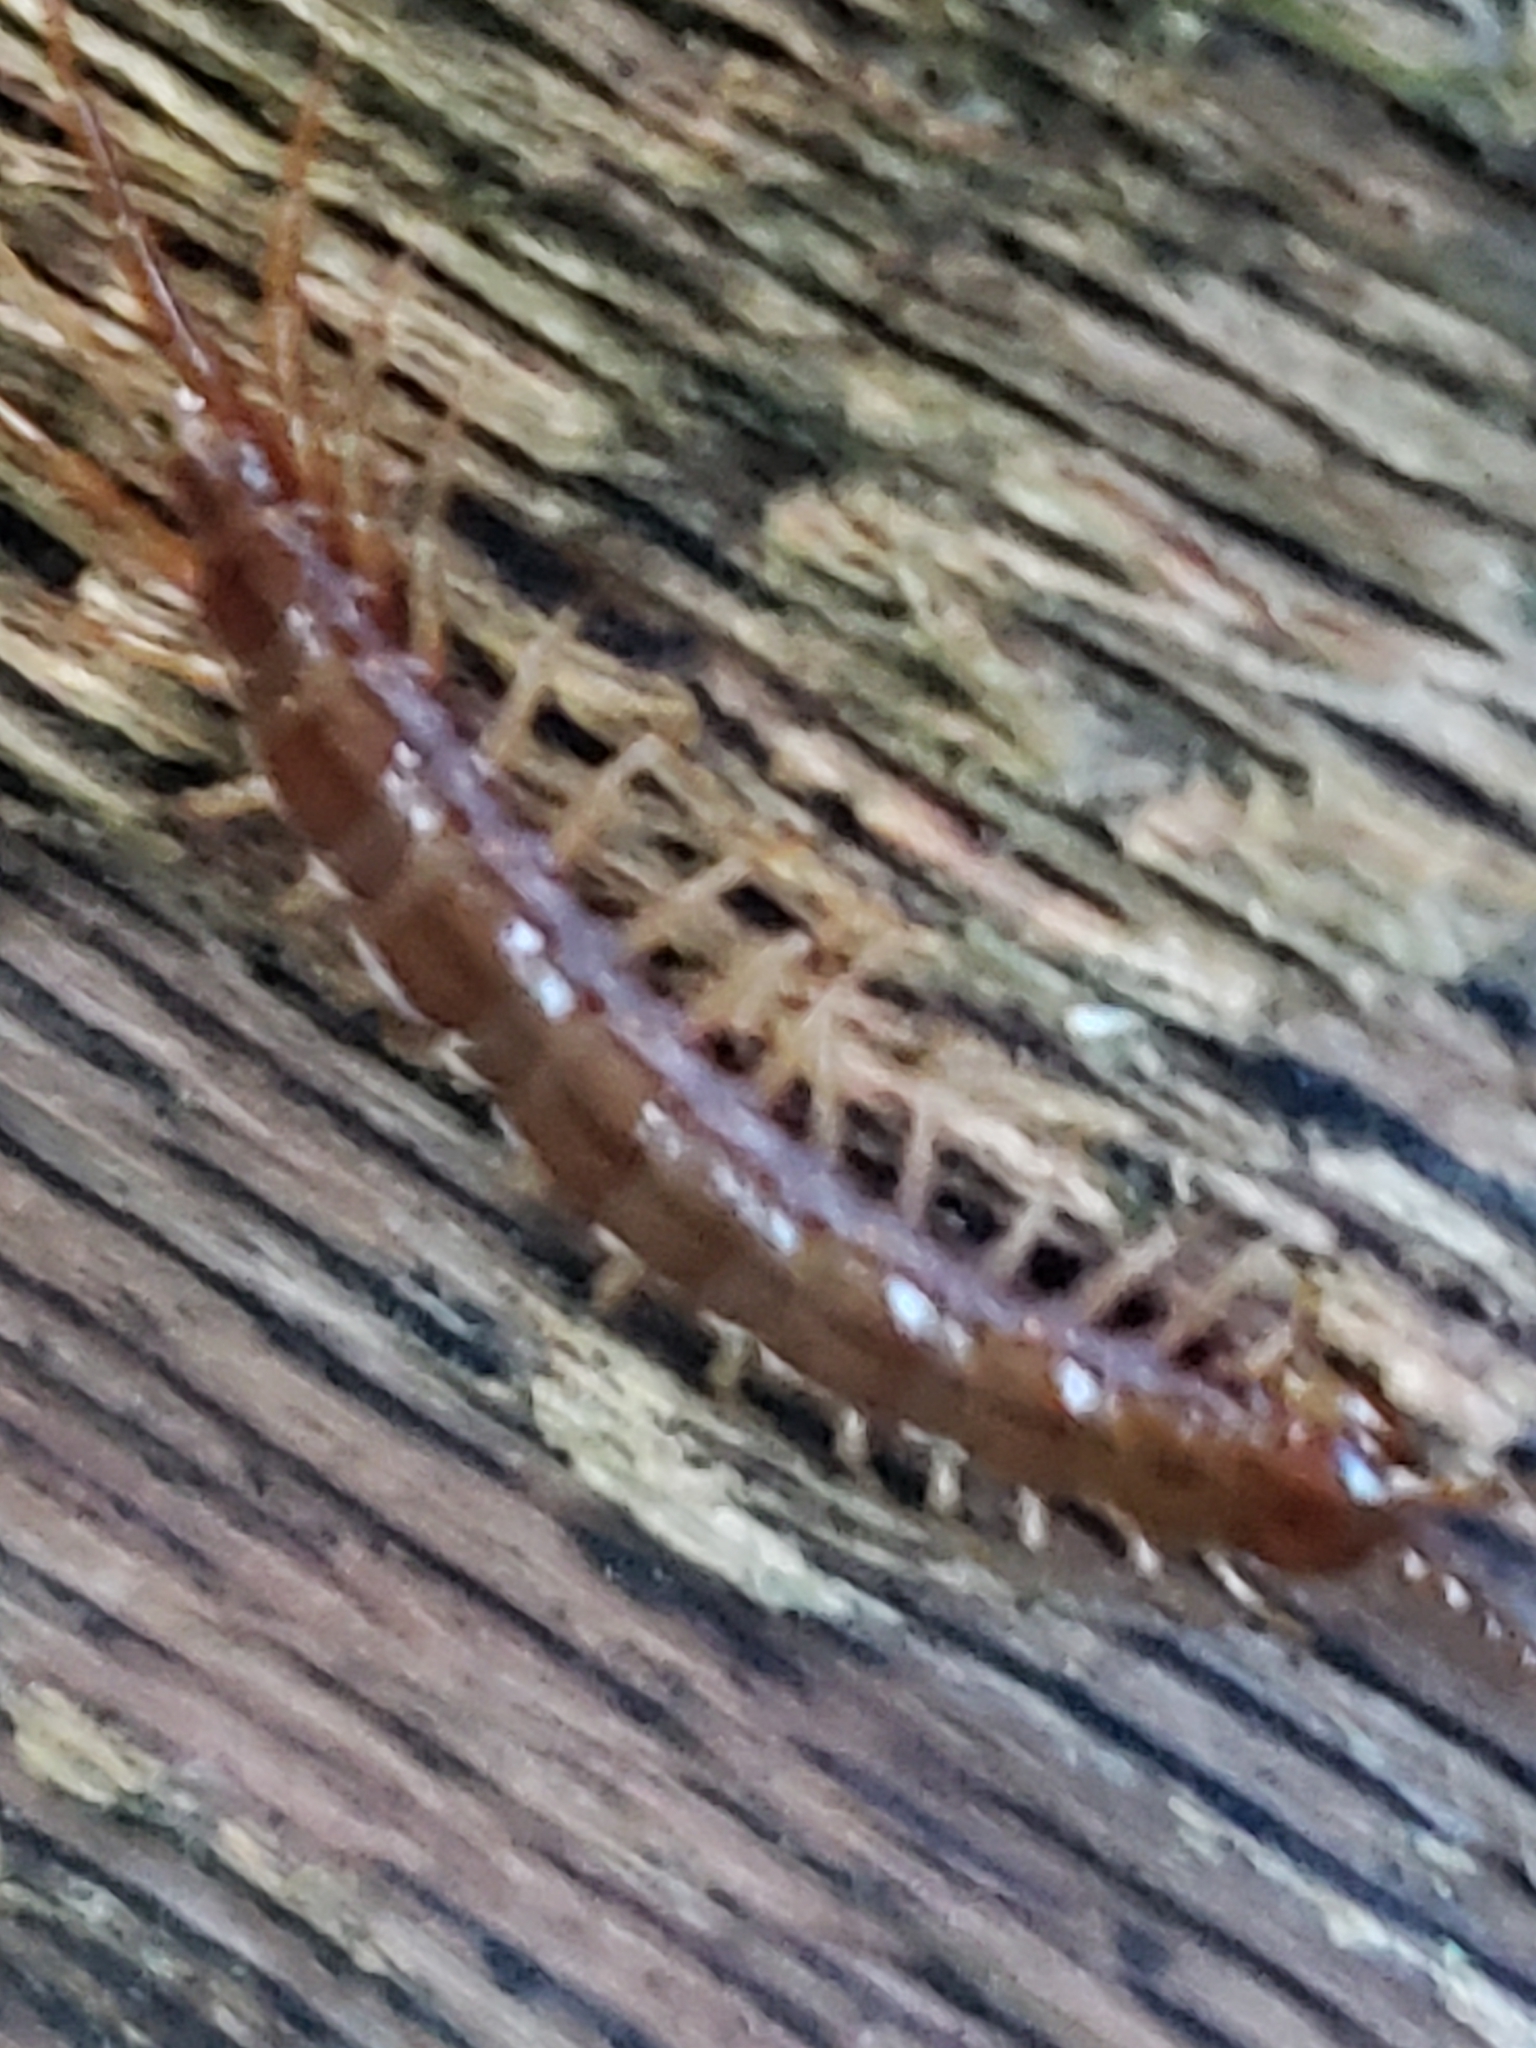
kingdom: Animalia
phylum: Arthropoda
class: Chilopoda
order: Lithobiomorpha
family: Lithobiidae
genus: Lithobius
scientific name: Lithobius forficatus
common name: Centipede
